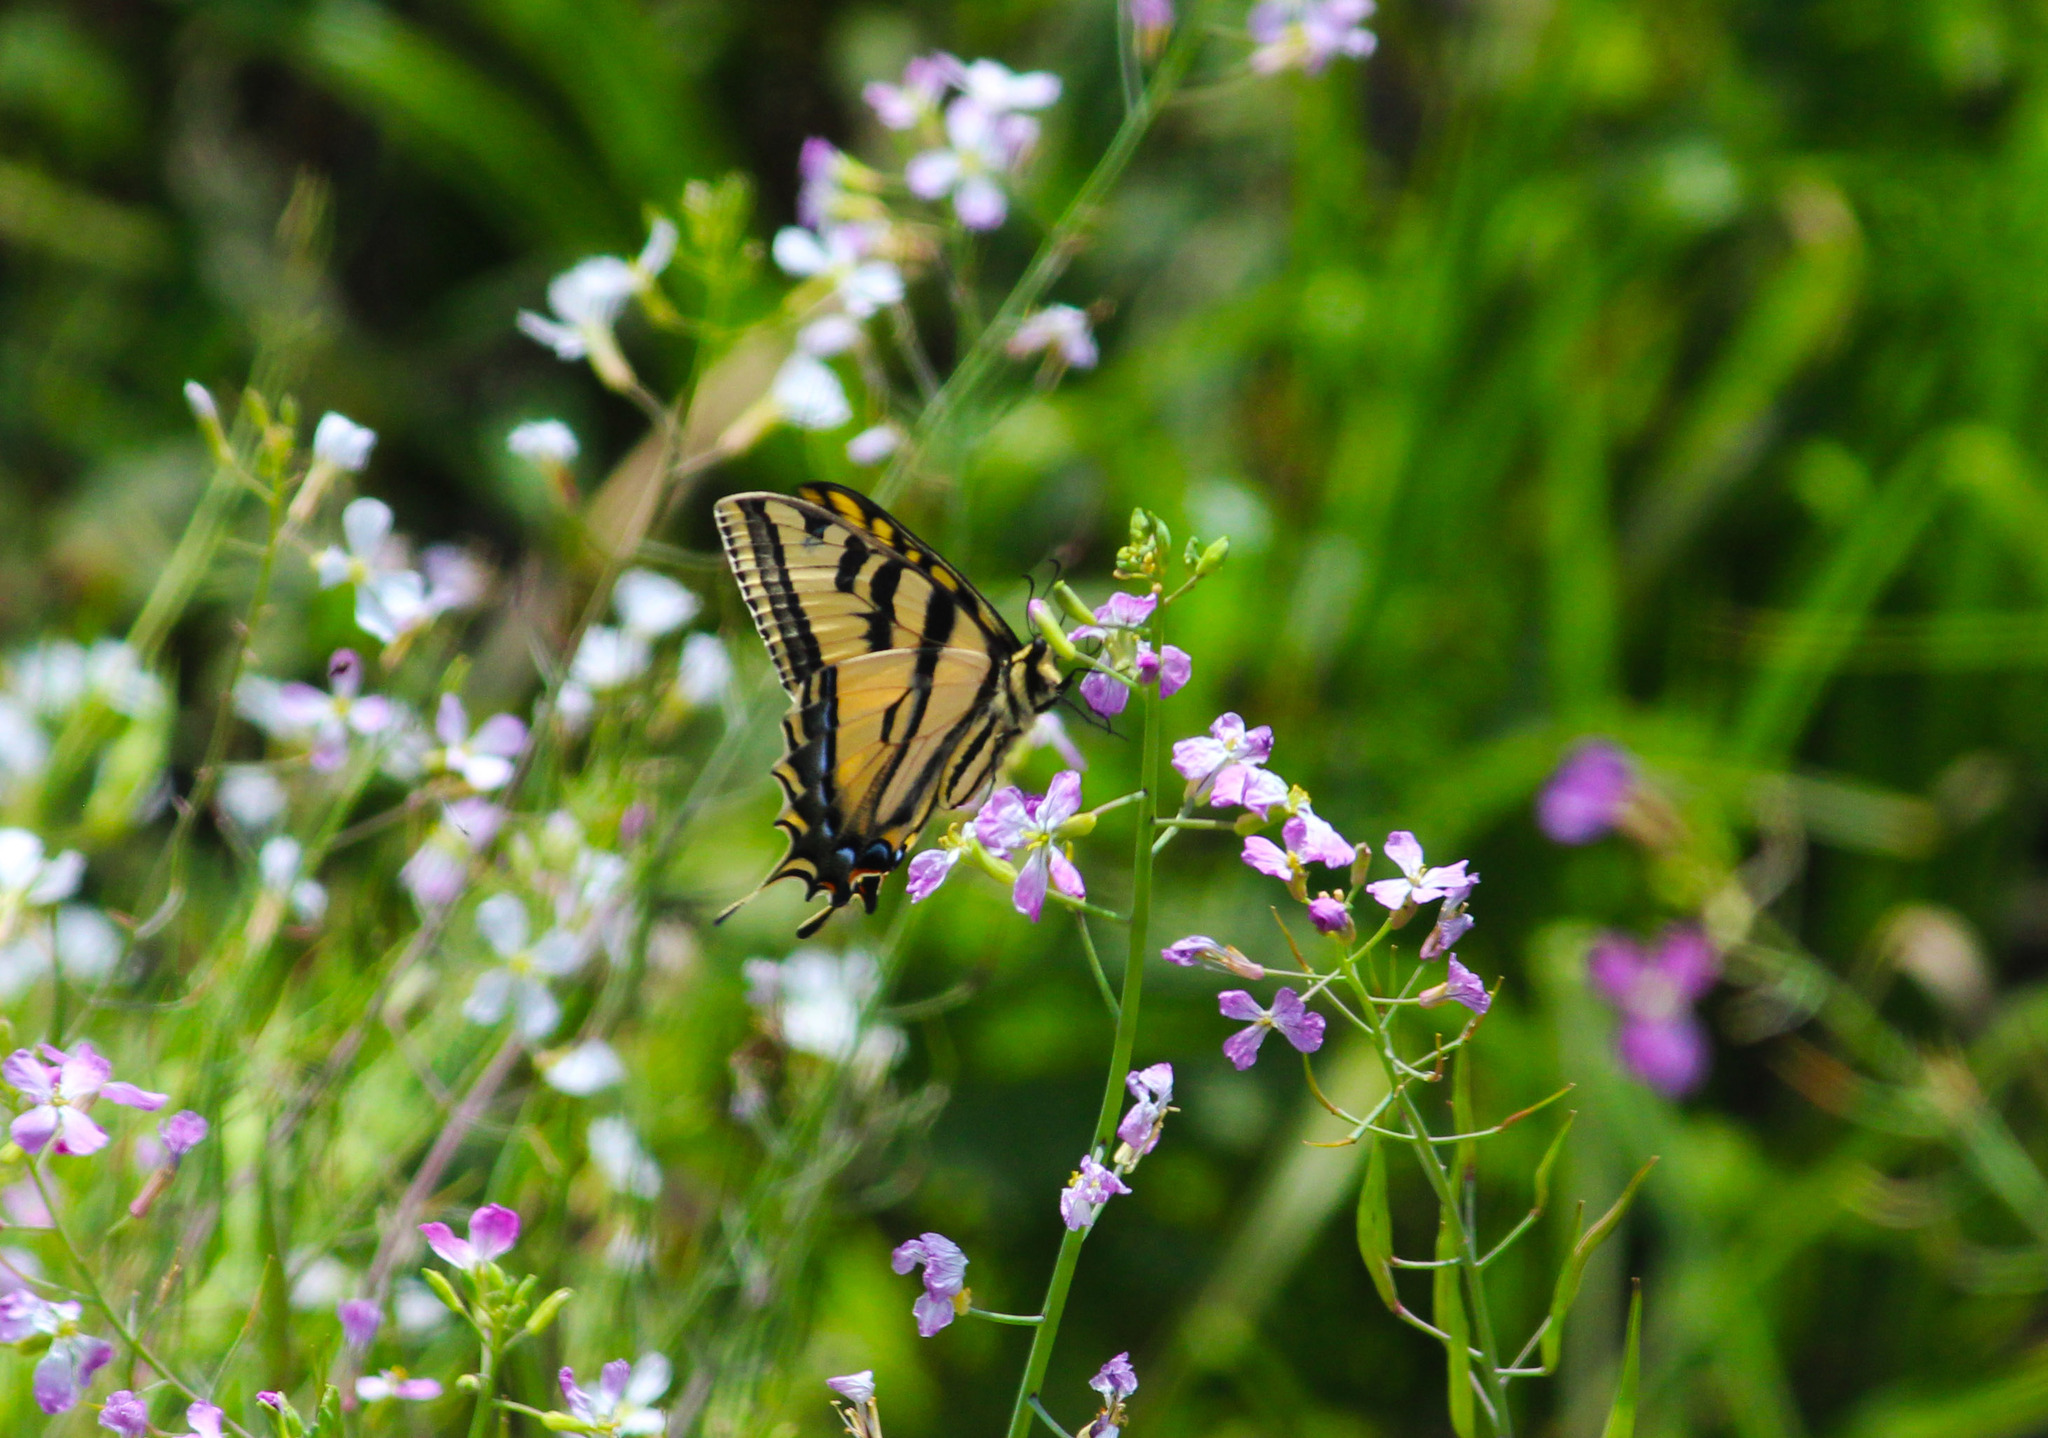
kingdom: Animalia
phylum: Arthropoda
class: Insecta
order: Lepidoptera
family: Papilionidae
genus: Papilio
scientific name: Papilio rutulus
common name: Western tiger swallowtail
